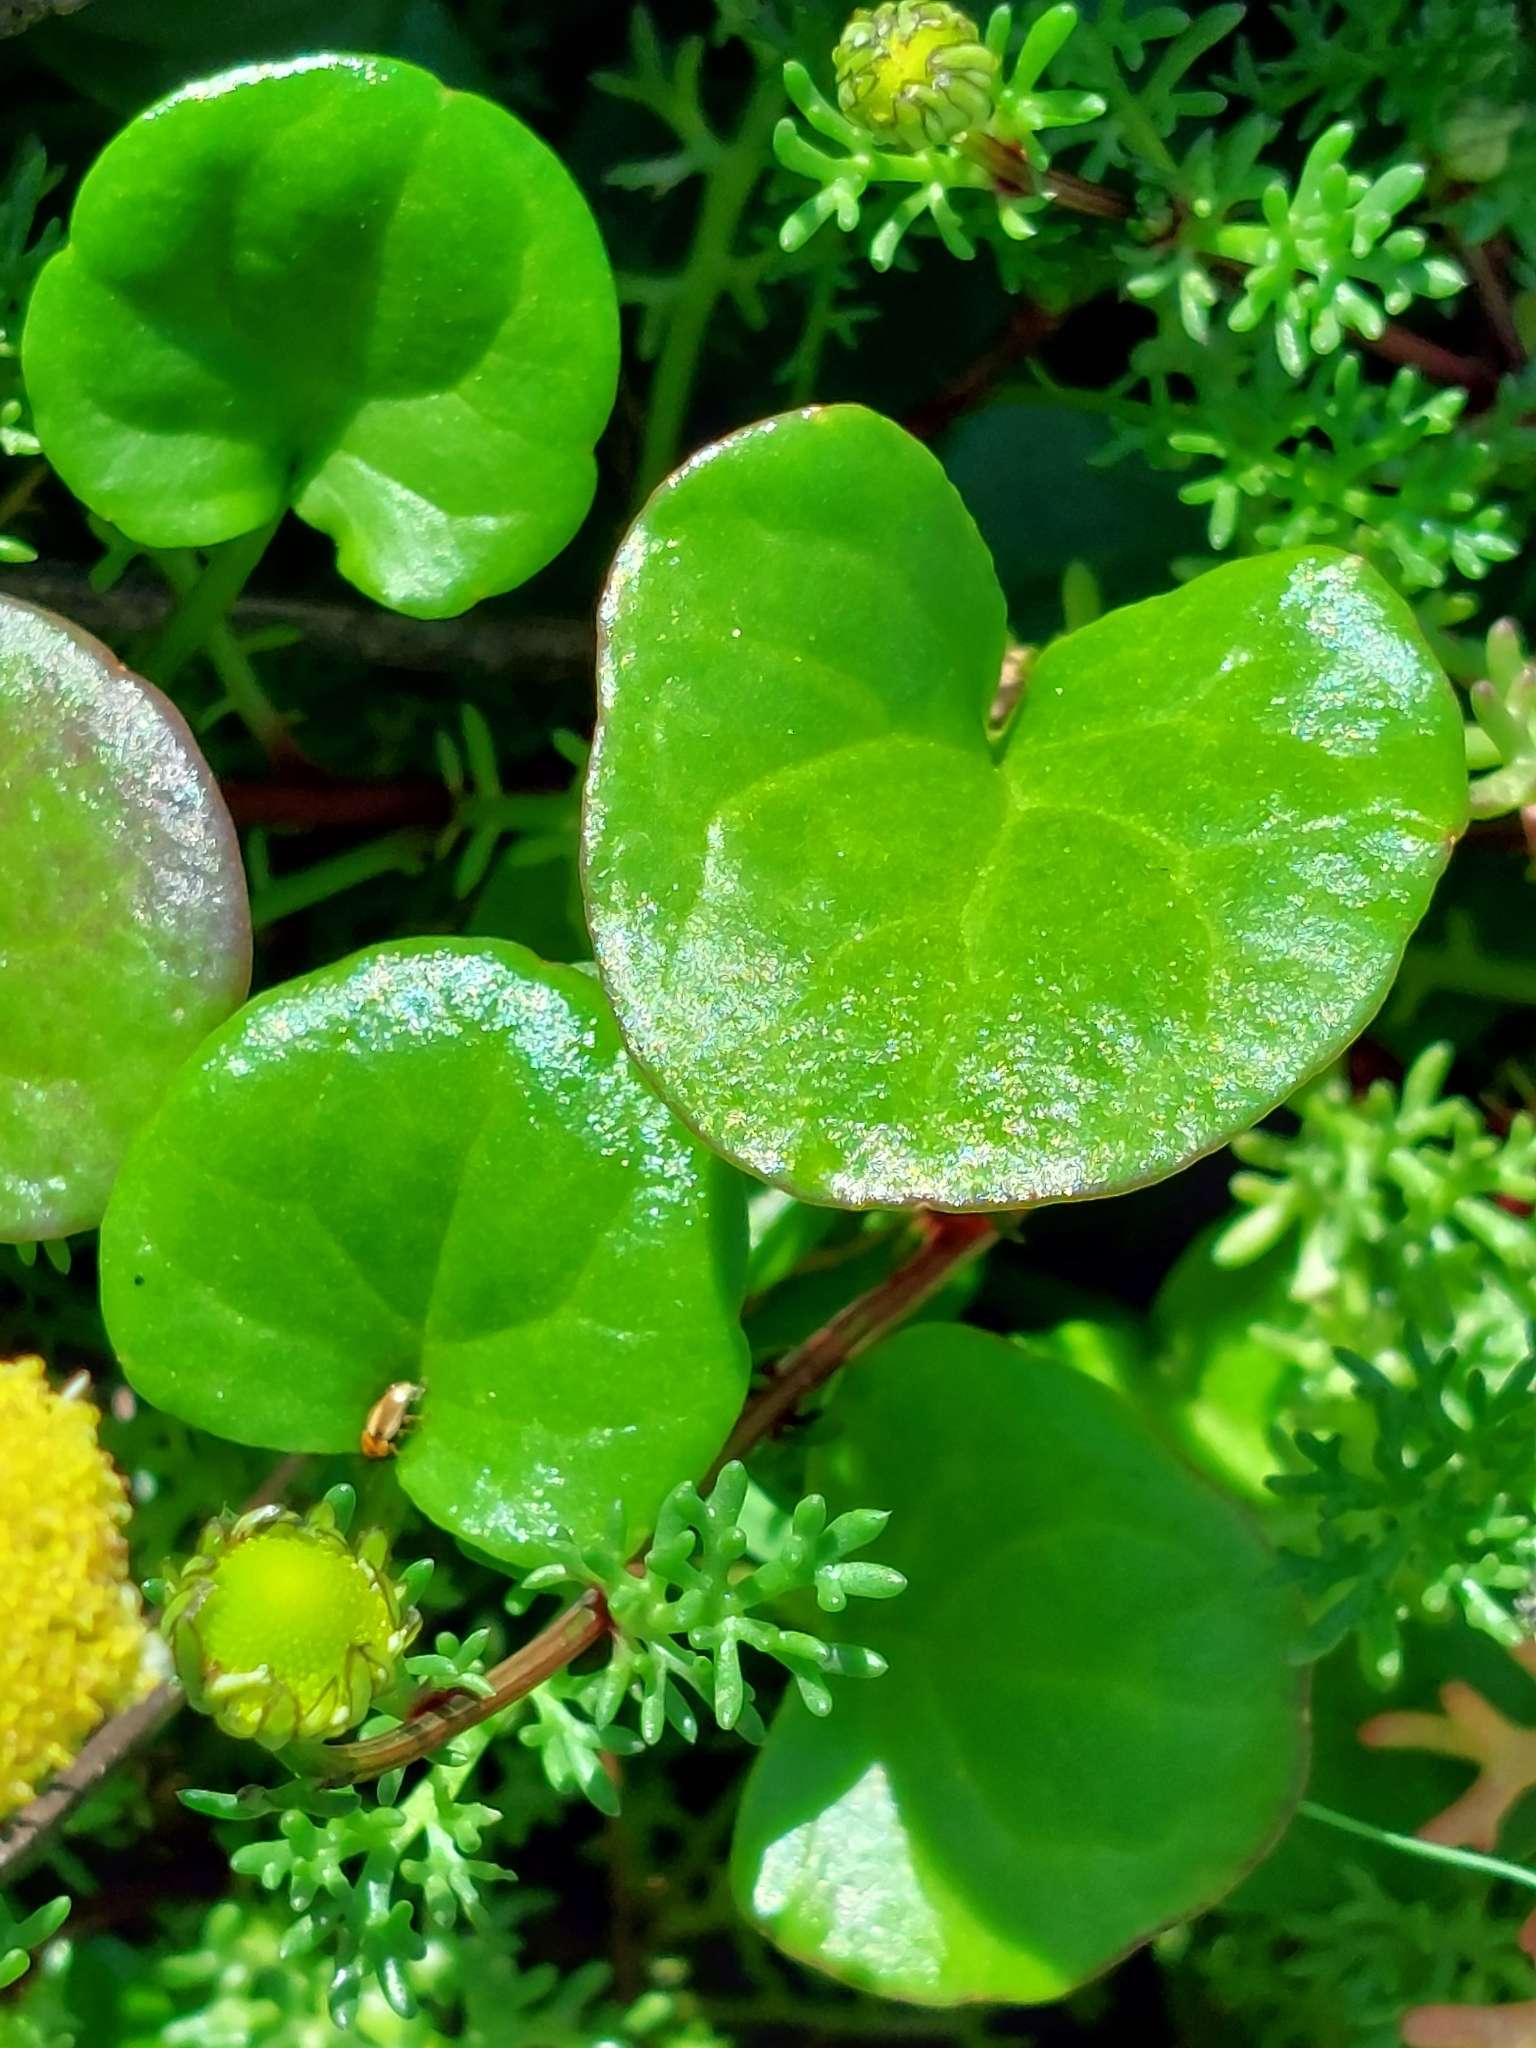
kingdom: Plantae
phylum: Tracheophyta
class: Magnoliopsida
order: Brassicales
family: Brassicaceae
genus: Cochlearia
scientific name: Cochlearia danica
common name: Early scurvygrass
